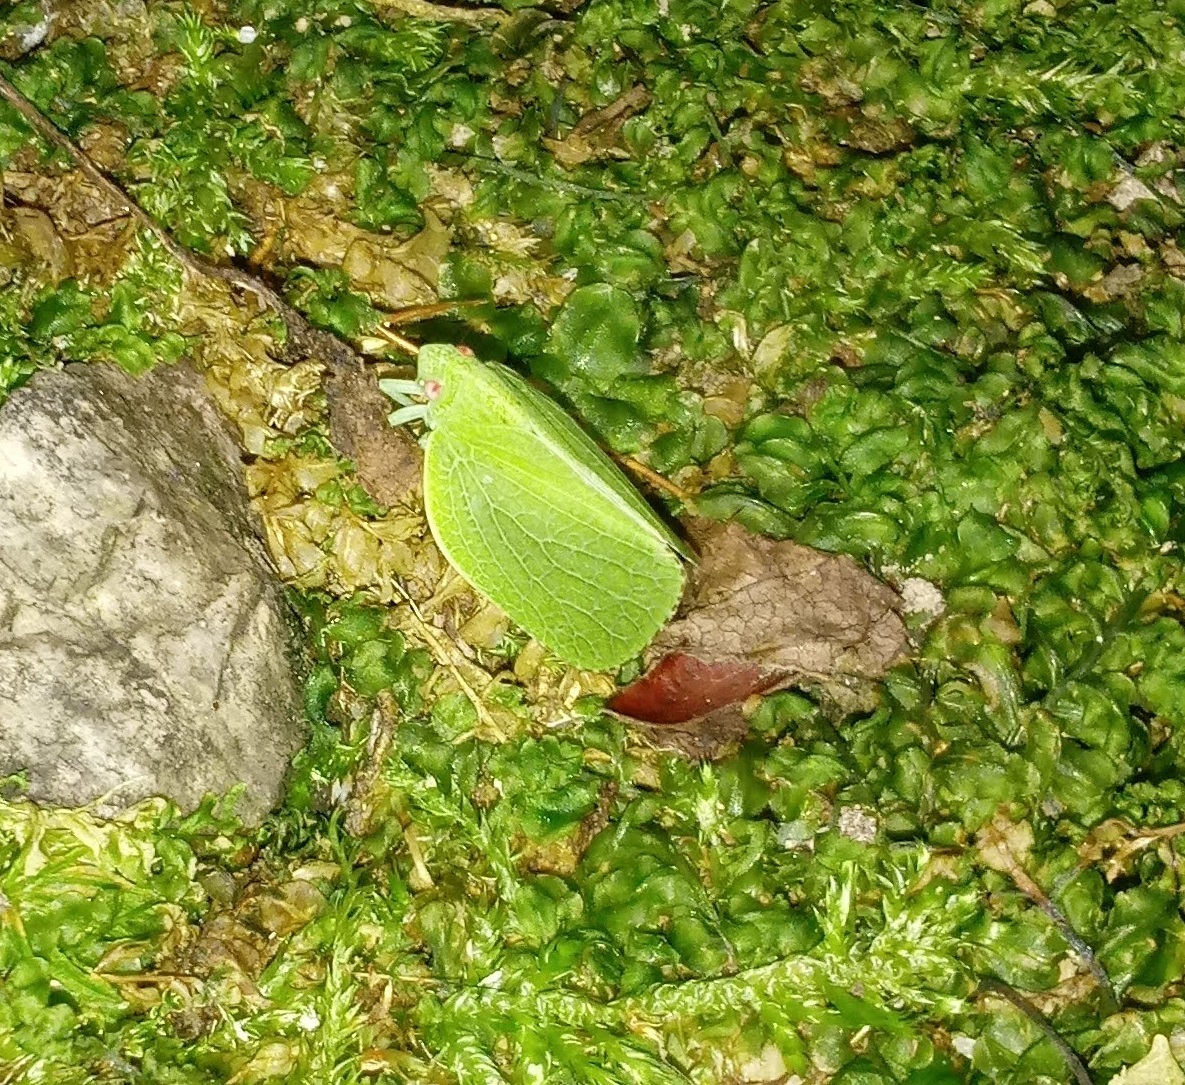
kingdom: Animalia
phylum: Arthropoda
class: Insecta
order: Hemiptera
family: Acanaloniidae
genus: Acanalonia
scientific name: Acanalonia conica
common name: Green cone-headed planthopper
